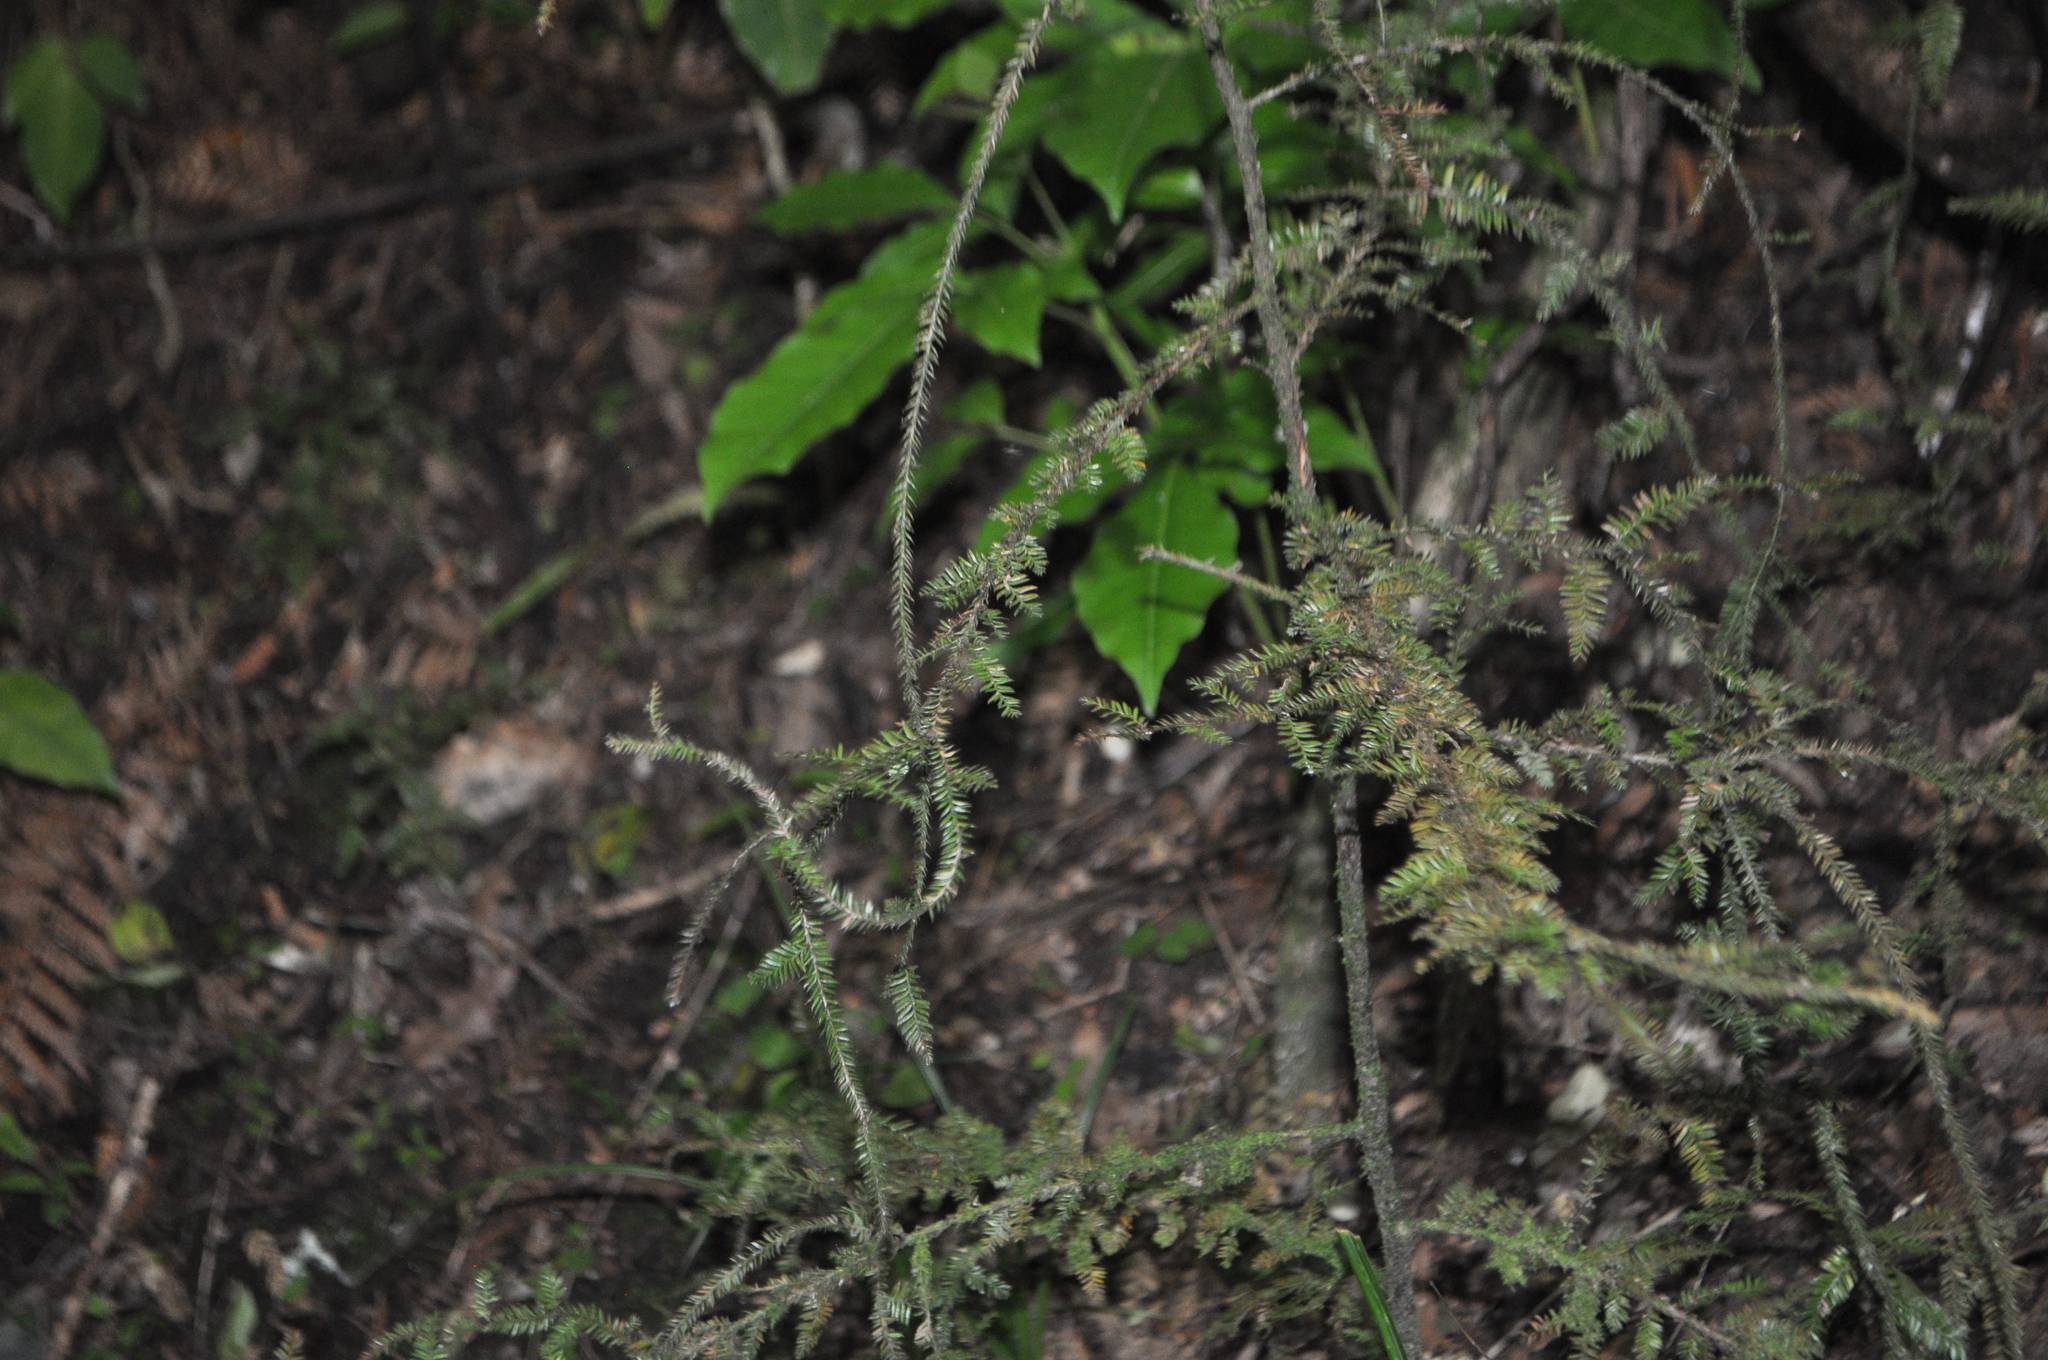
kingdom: Plantae
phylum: Tracheophyta
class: Pinopsida
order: Pinales
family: Podocarpaceae
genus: Dacrycarpus
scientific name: Dacrycarpus dacrydioides
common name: White pine
